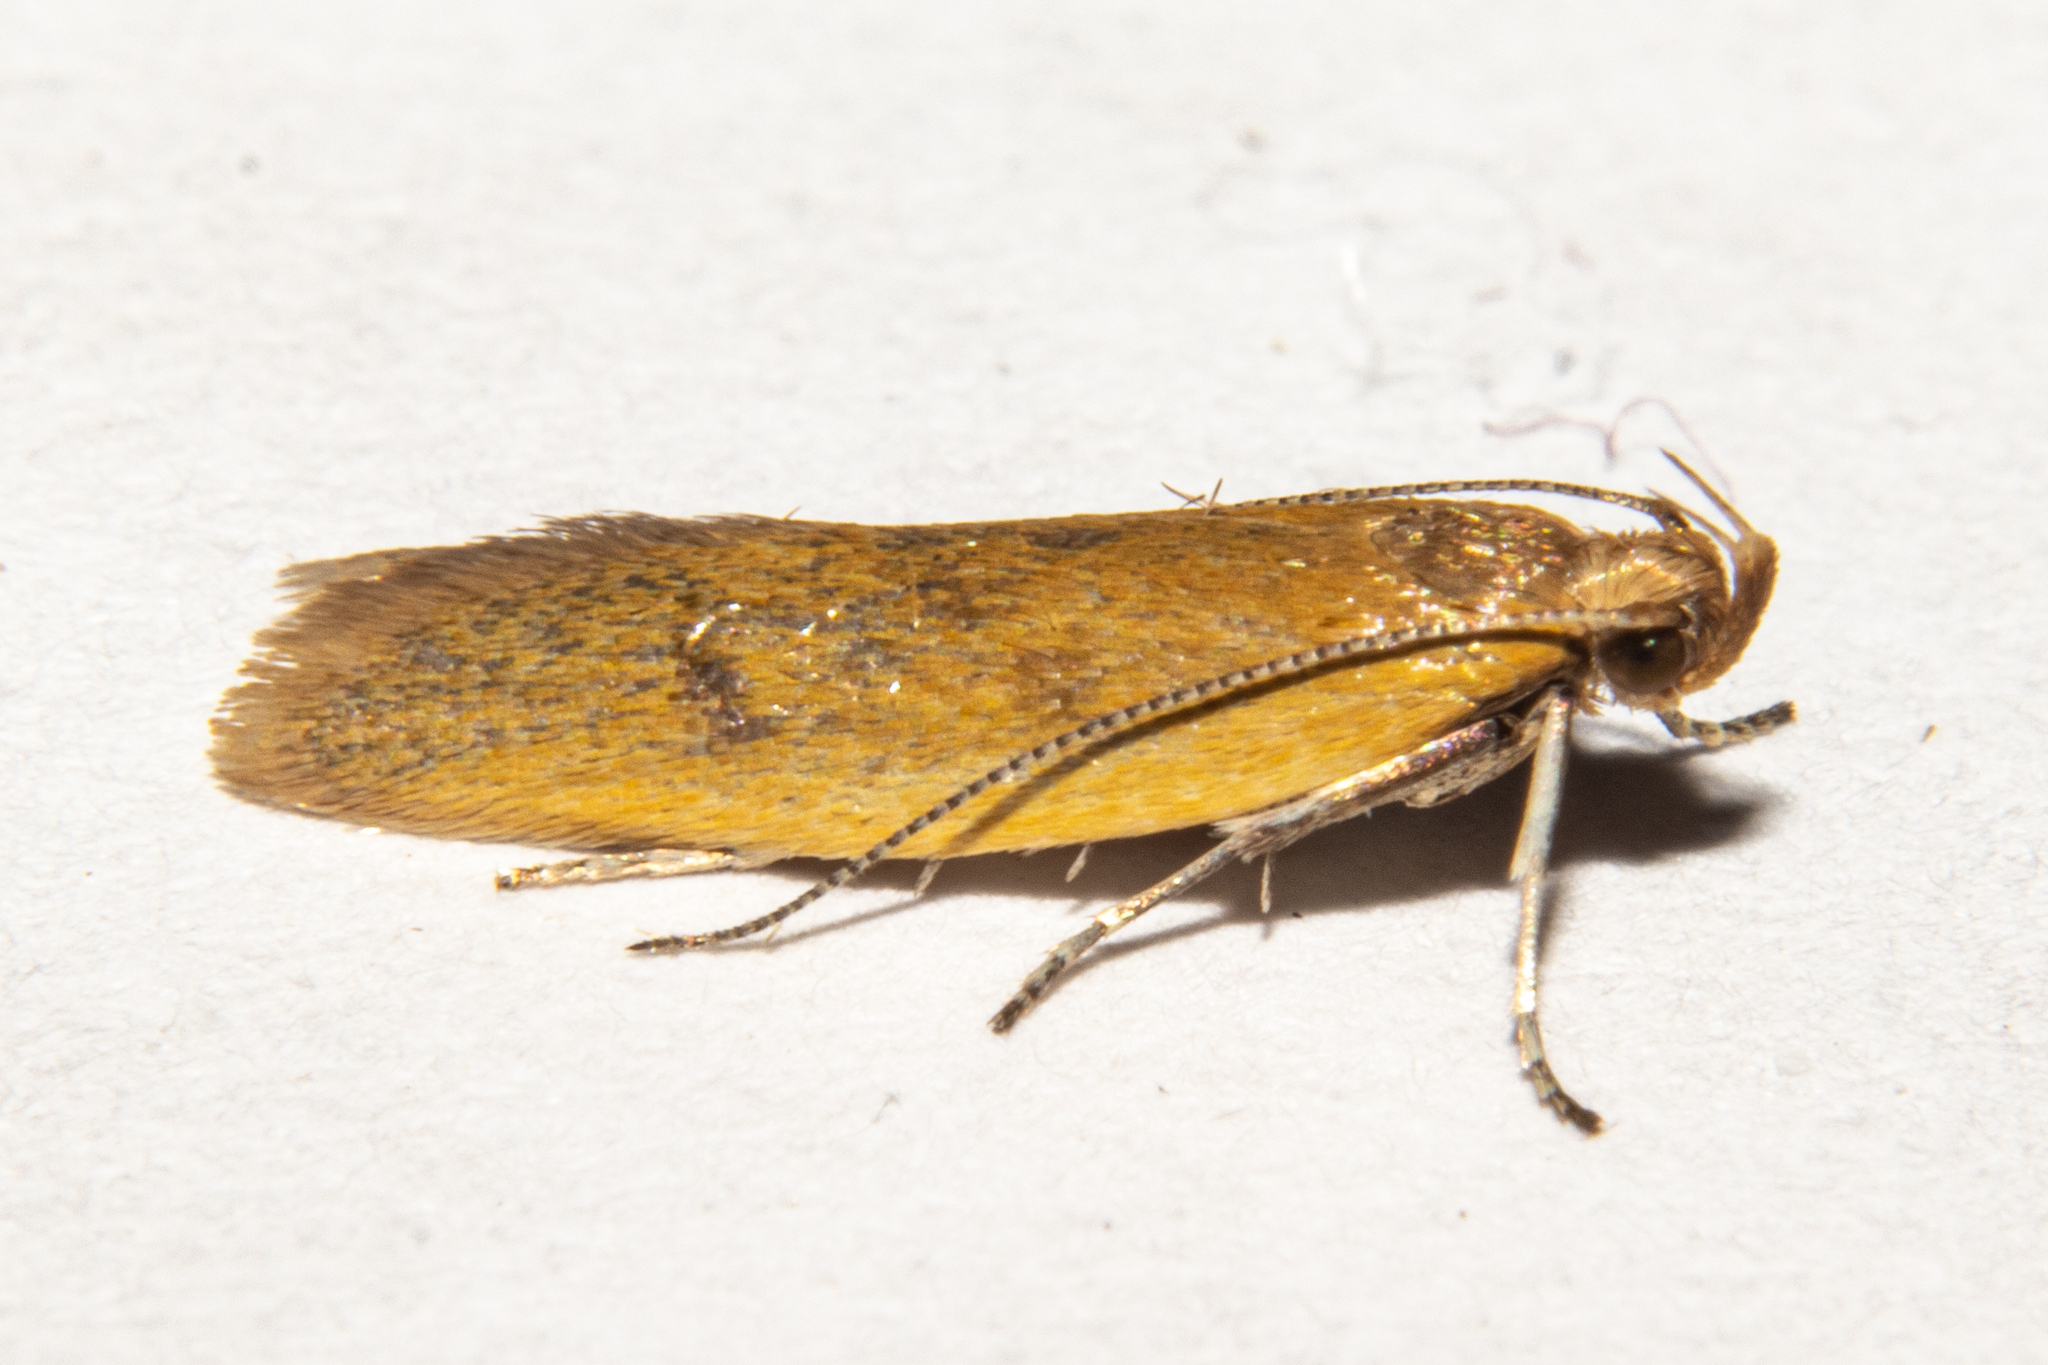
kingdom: Animalia
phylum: Arthropoda
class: Insecta
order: Lepidoptera
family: Oecophoridae
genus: Gymnobathra
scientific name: Gymnobathra parca
